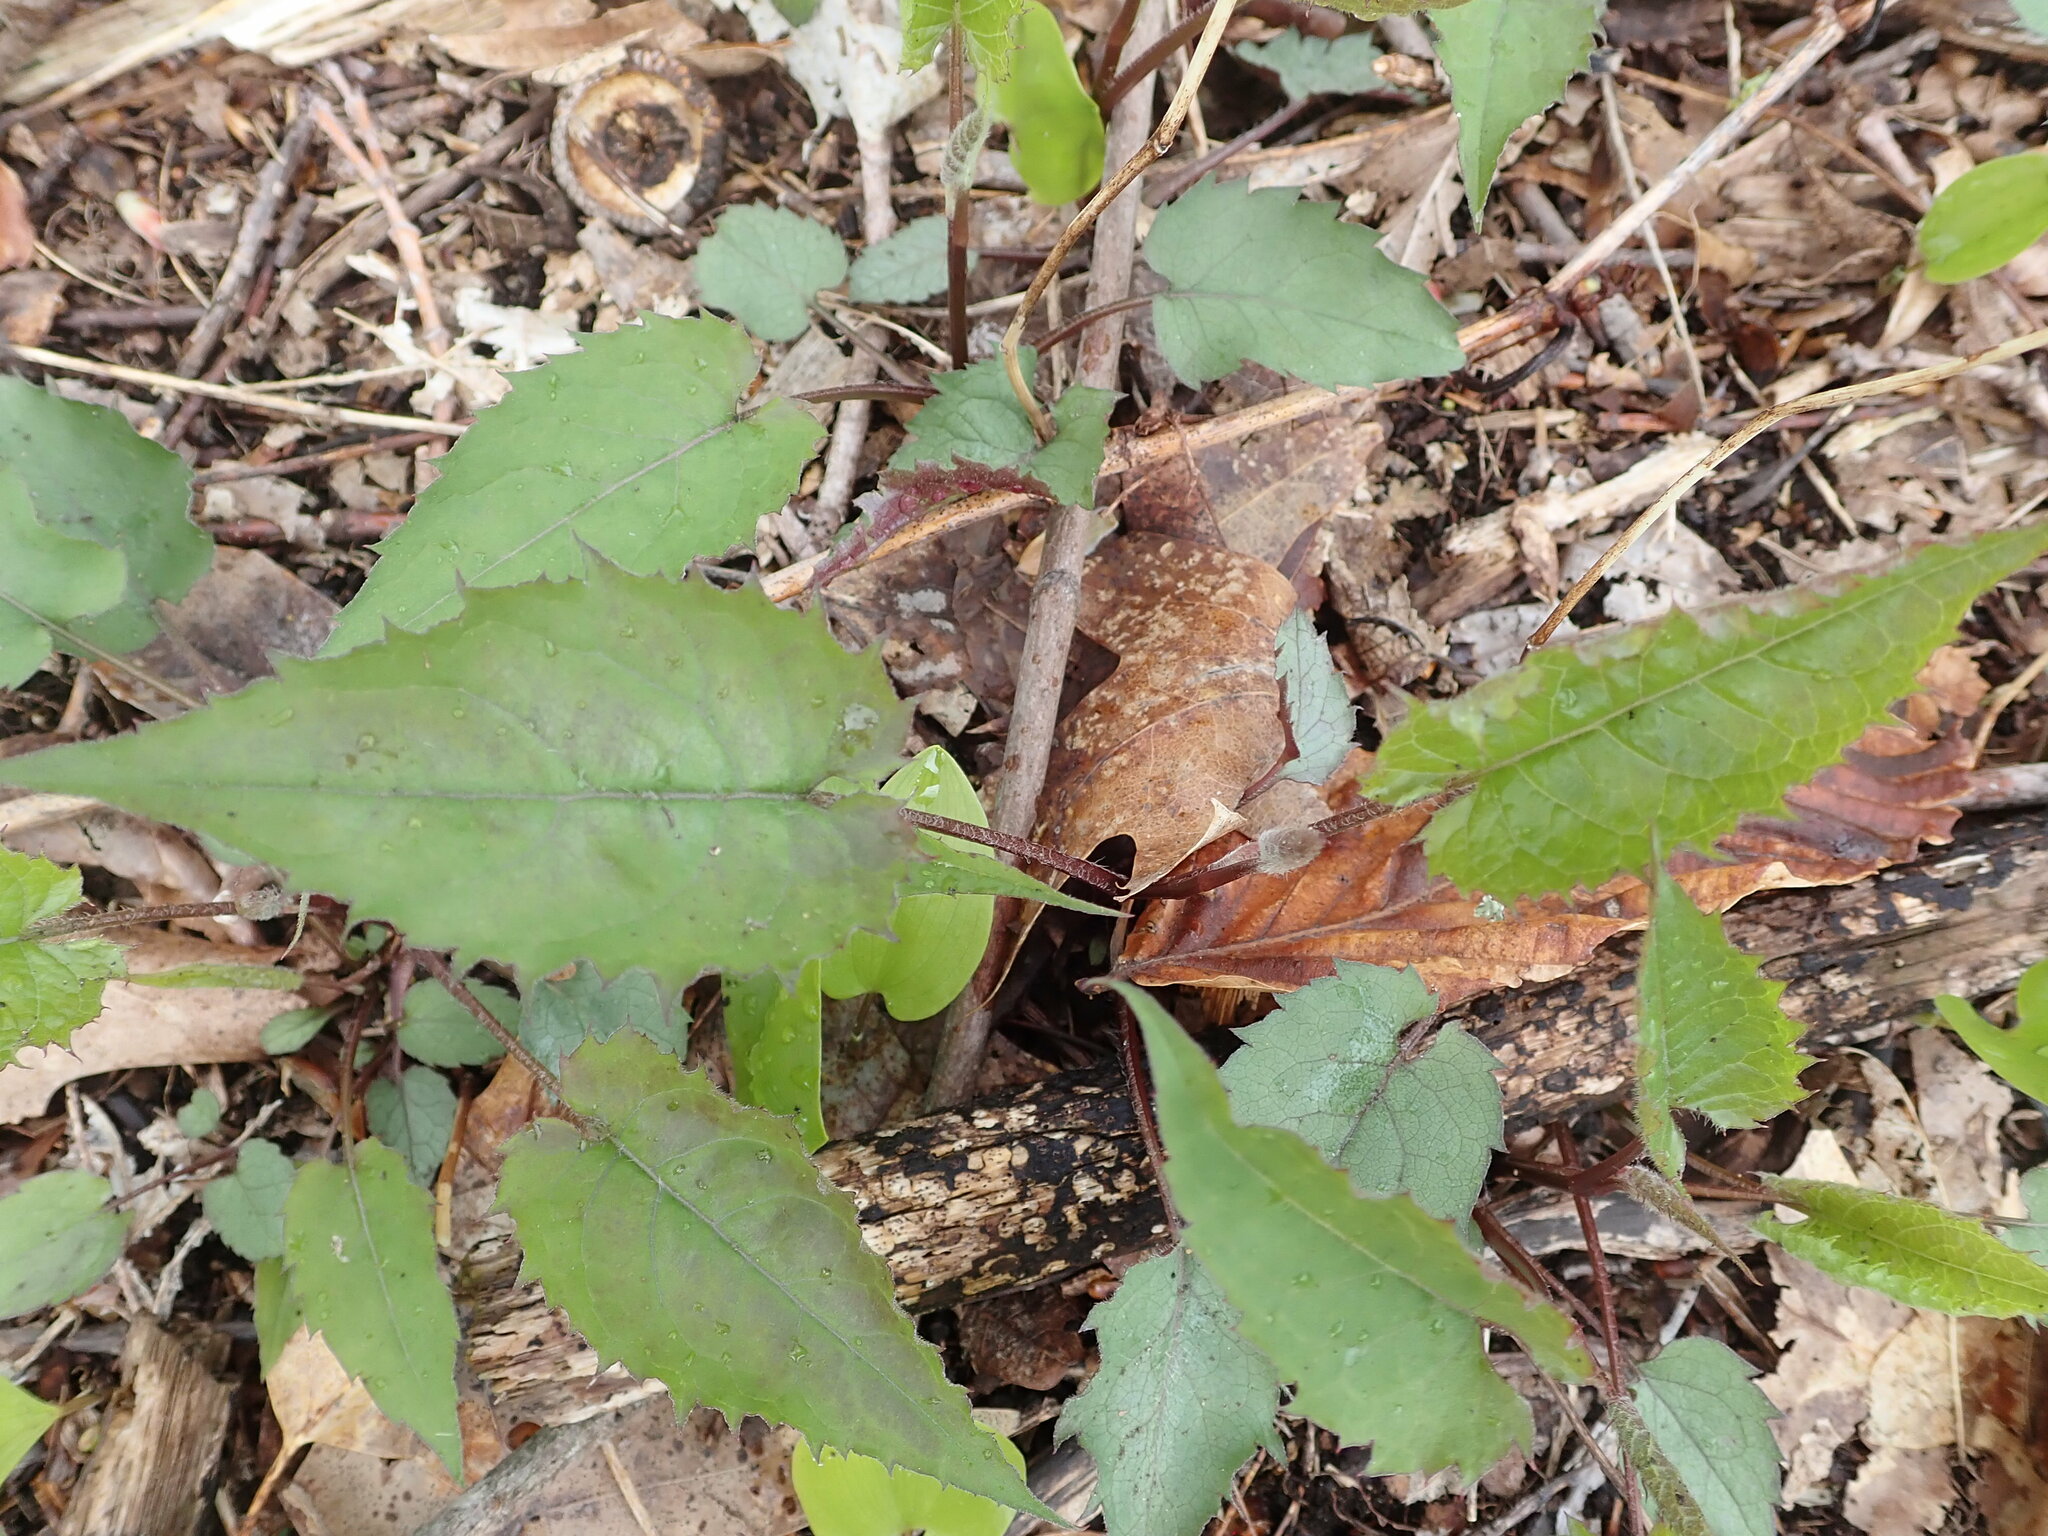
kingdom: Plantae
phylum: Tracheophyta
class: Magnoliopsida
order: Caryophyllales
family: Polygonaceae
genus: Reynoutria
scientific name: Reynoutria japonica
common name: Japanese knotweed
